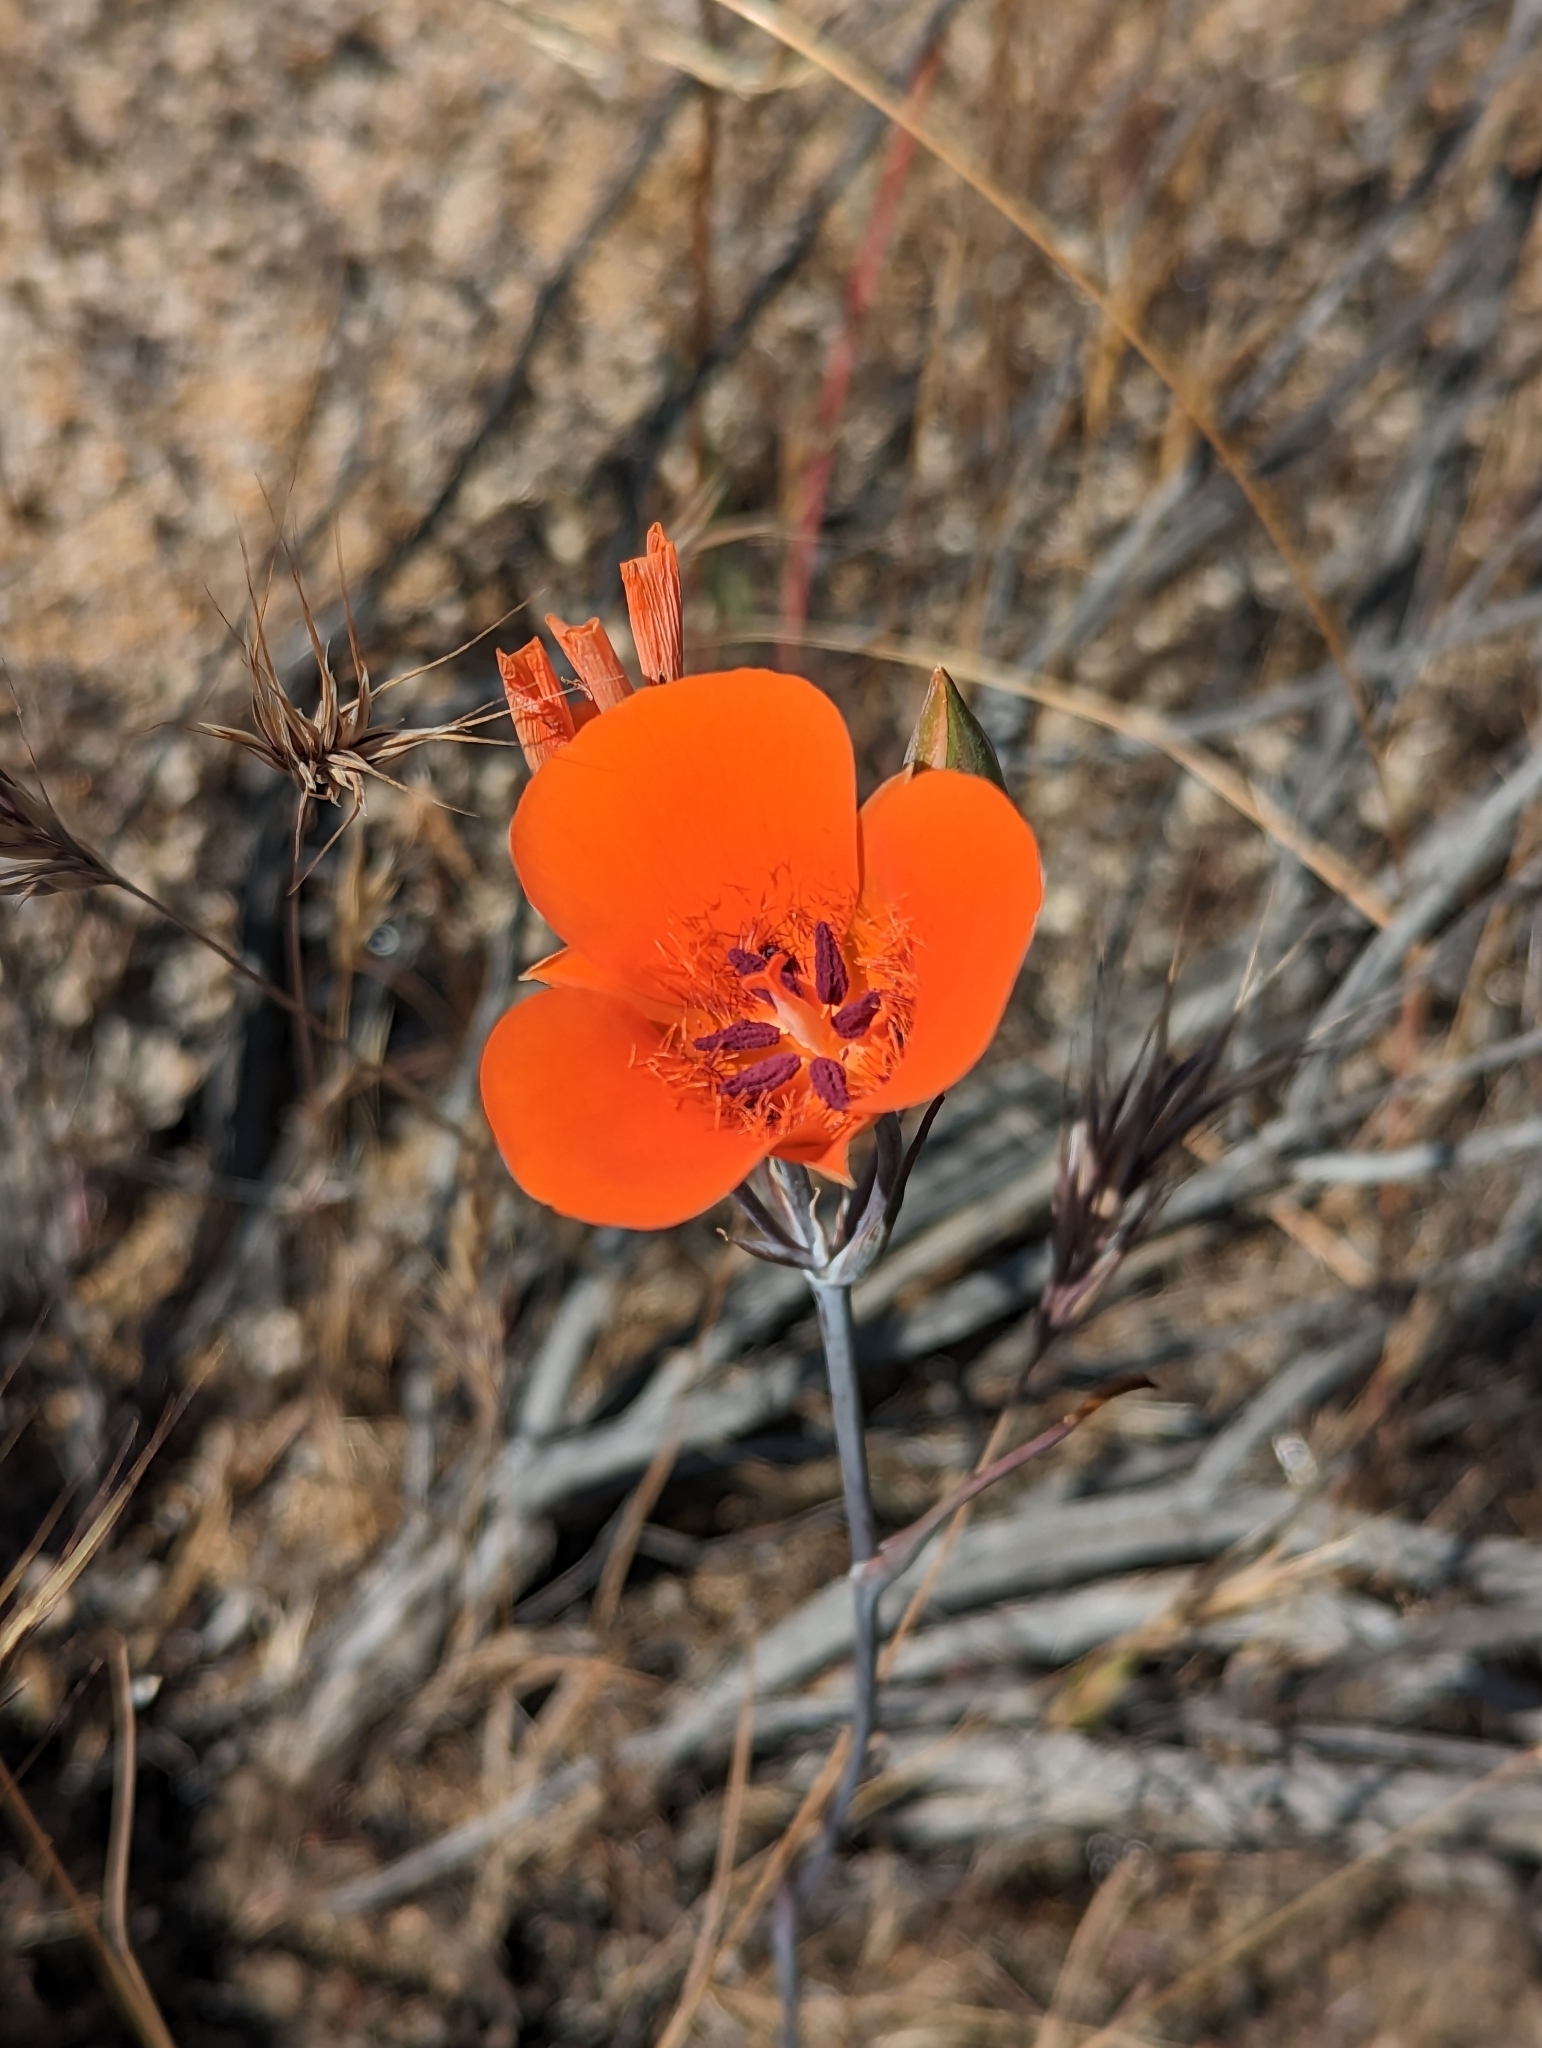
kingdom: Plantae
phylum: Tracheophyta
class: Liliopsida
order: Liliales
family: Liliaceae
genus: Calochortus
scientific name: Calochortus kennedyi
